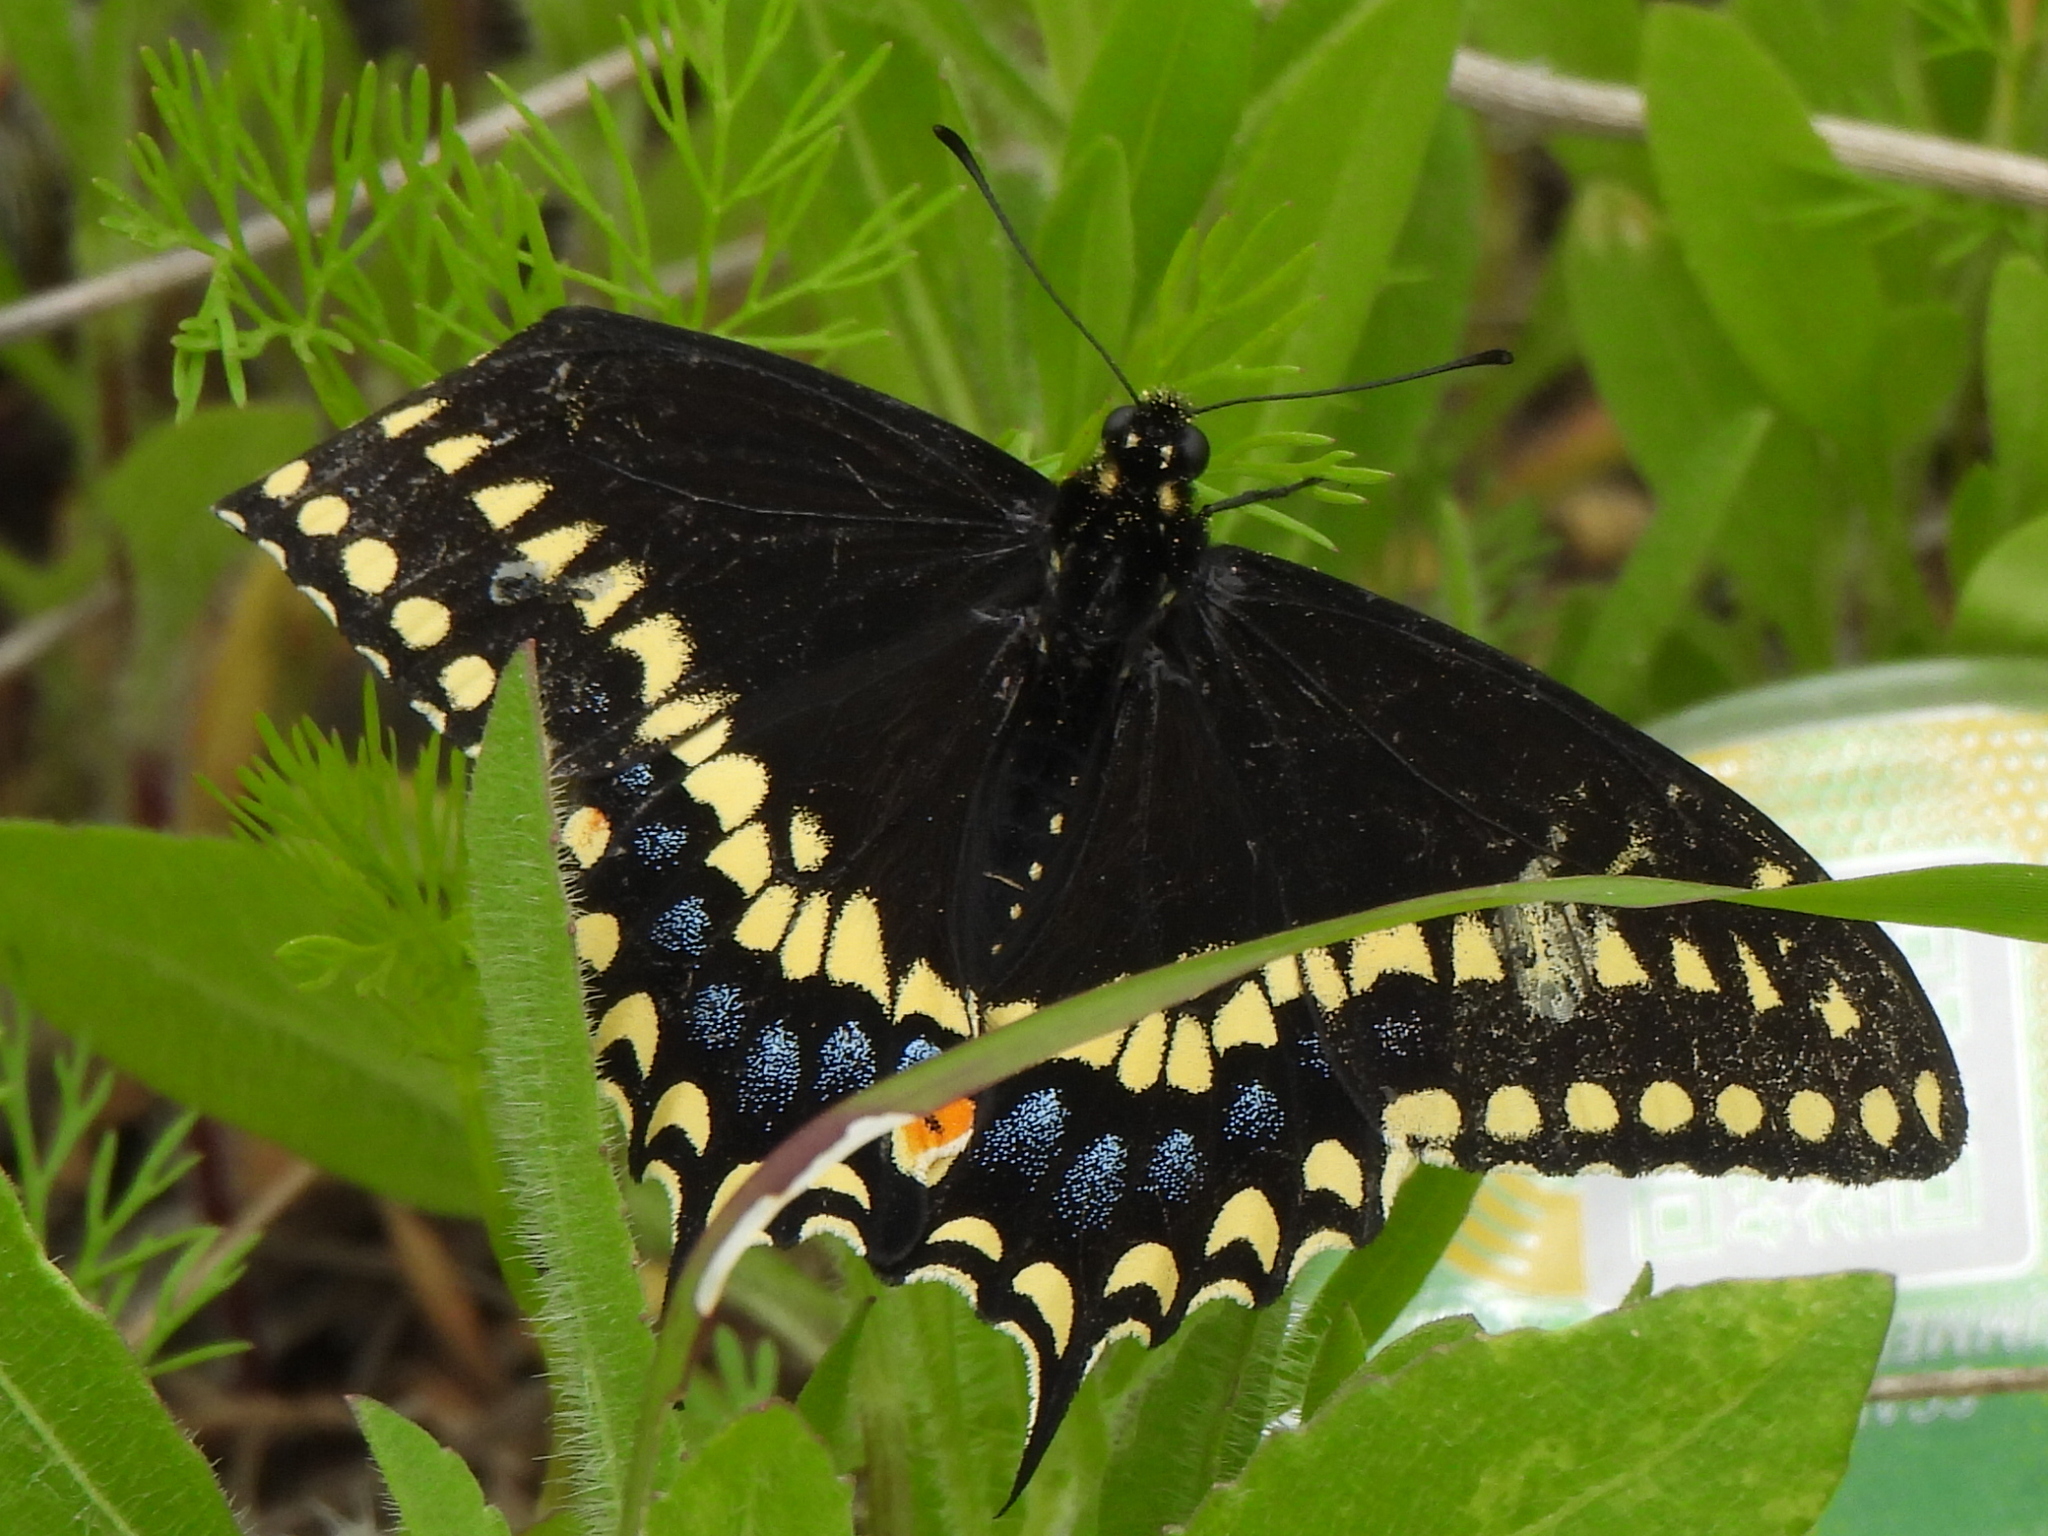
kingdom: Animalia
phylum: Arthropoda
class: Insecta
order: Lepidoptera
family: Papilionidae
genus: Papilio
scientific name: Papilio polyxenes
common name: Black swallowtail
